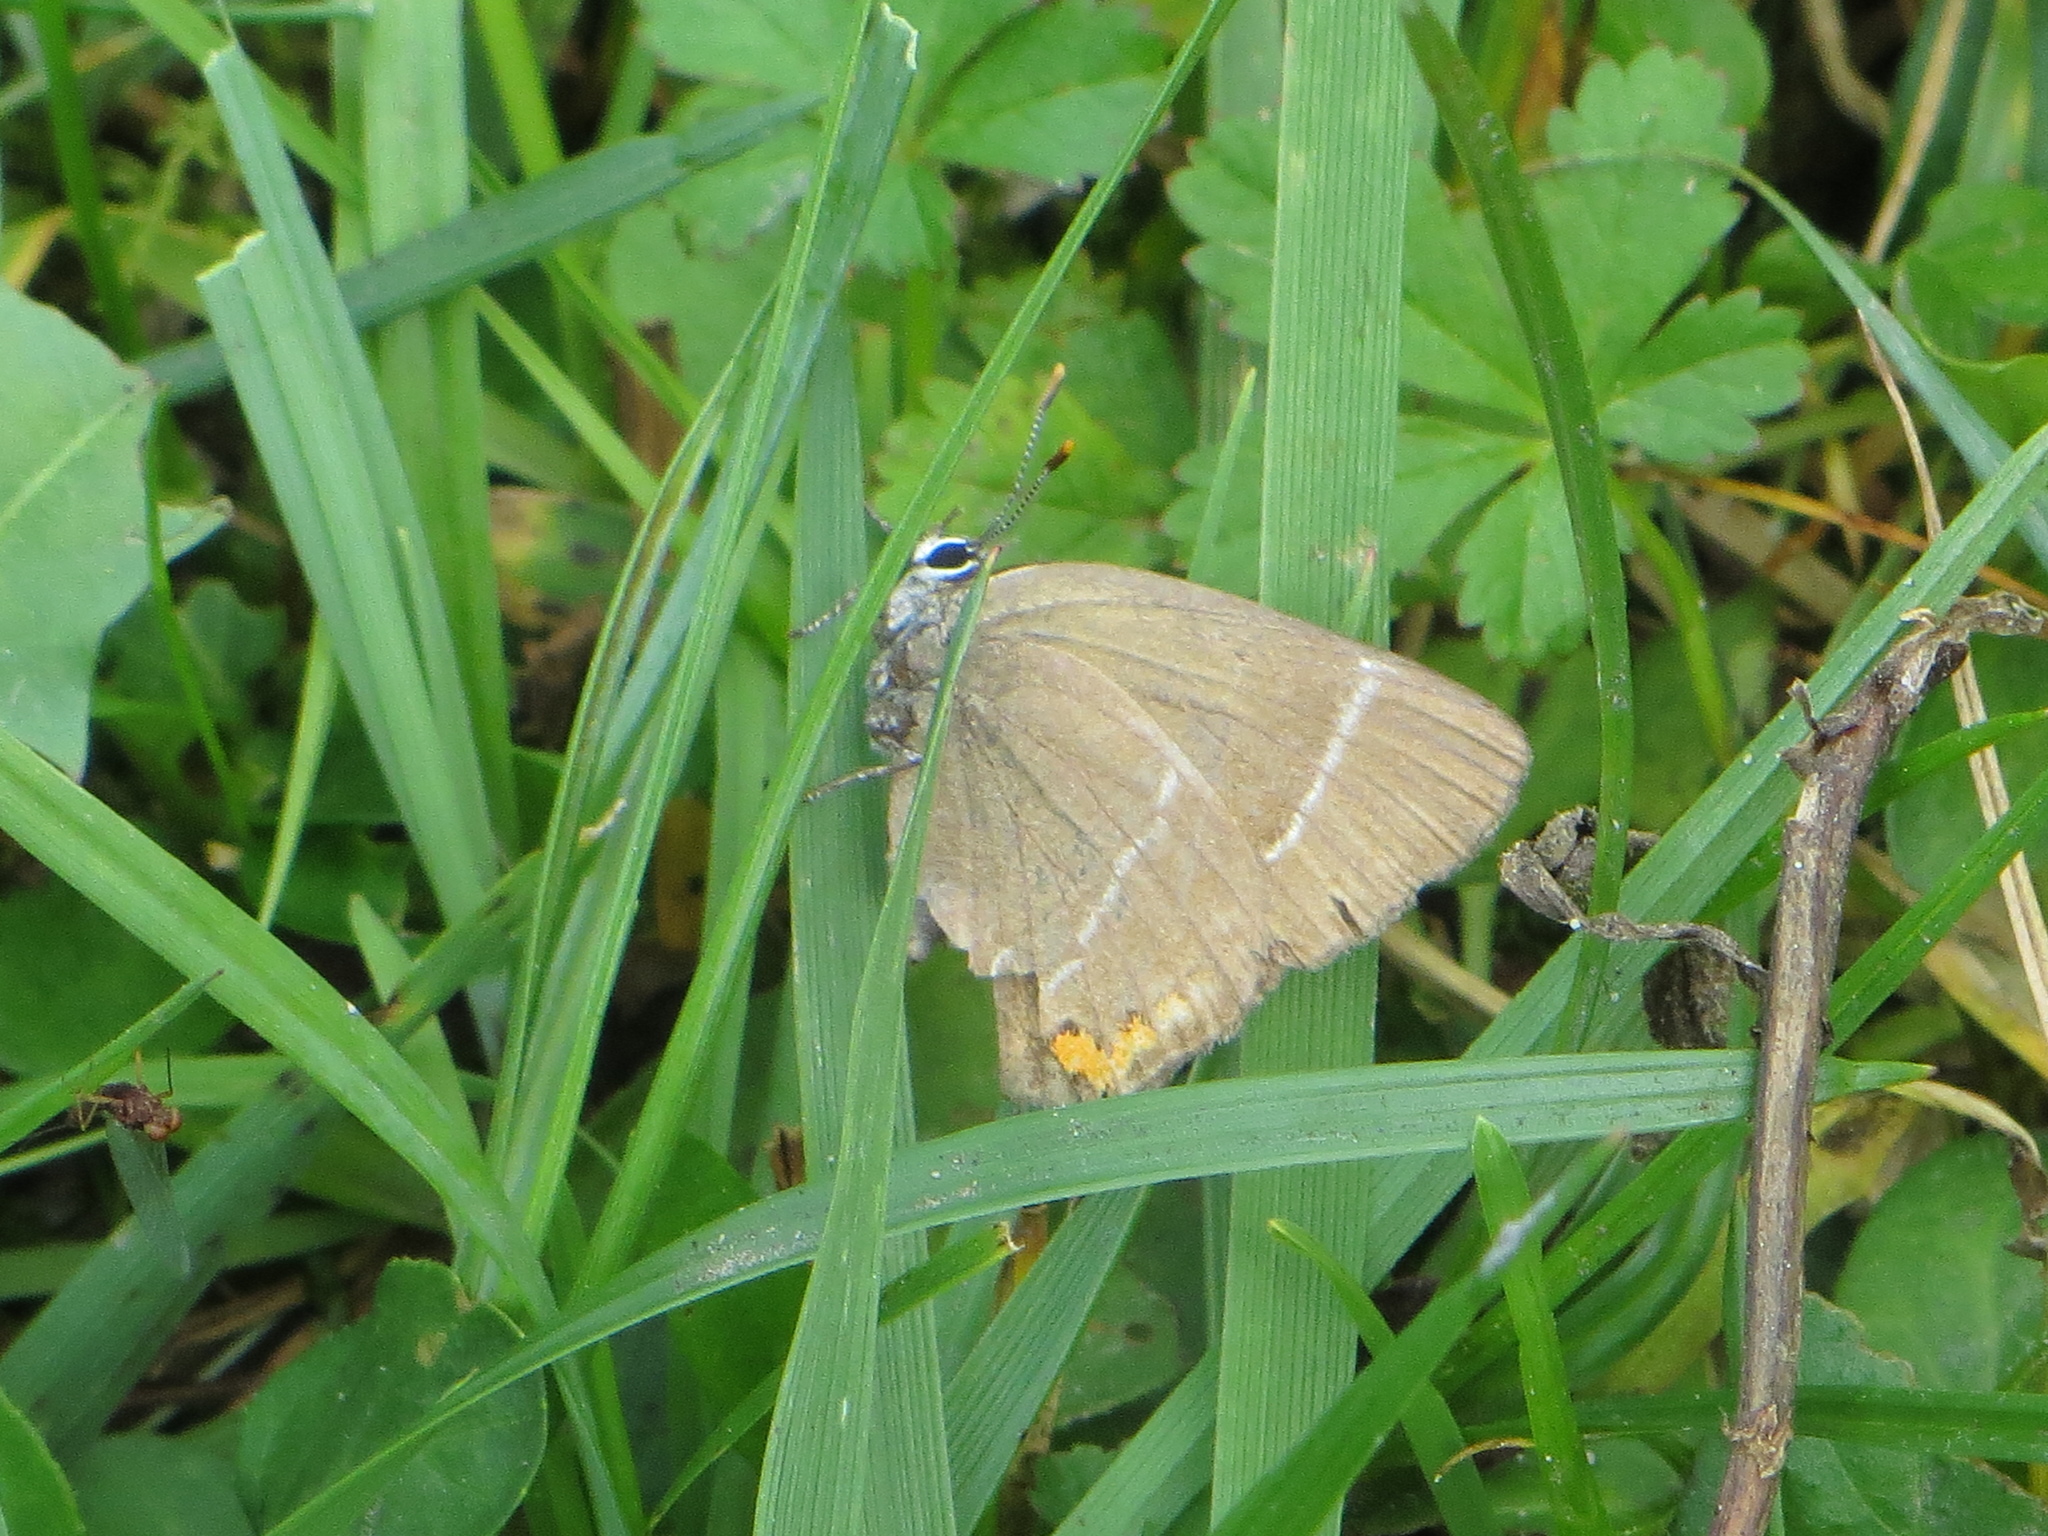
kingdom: Animalia
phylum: Arthropoda
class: Insecta
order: Lepidoptera
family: Lycaenidae
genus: Satyrium
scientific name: Satyrium w-album
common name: White-letter hairstreak
